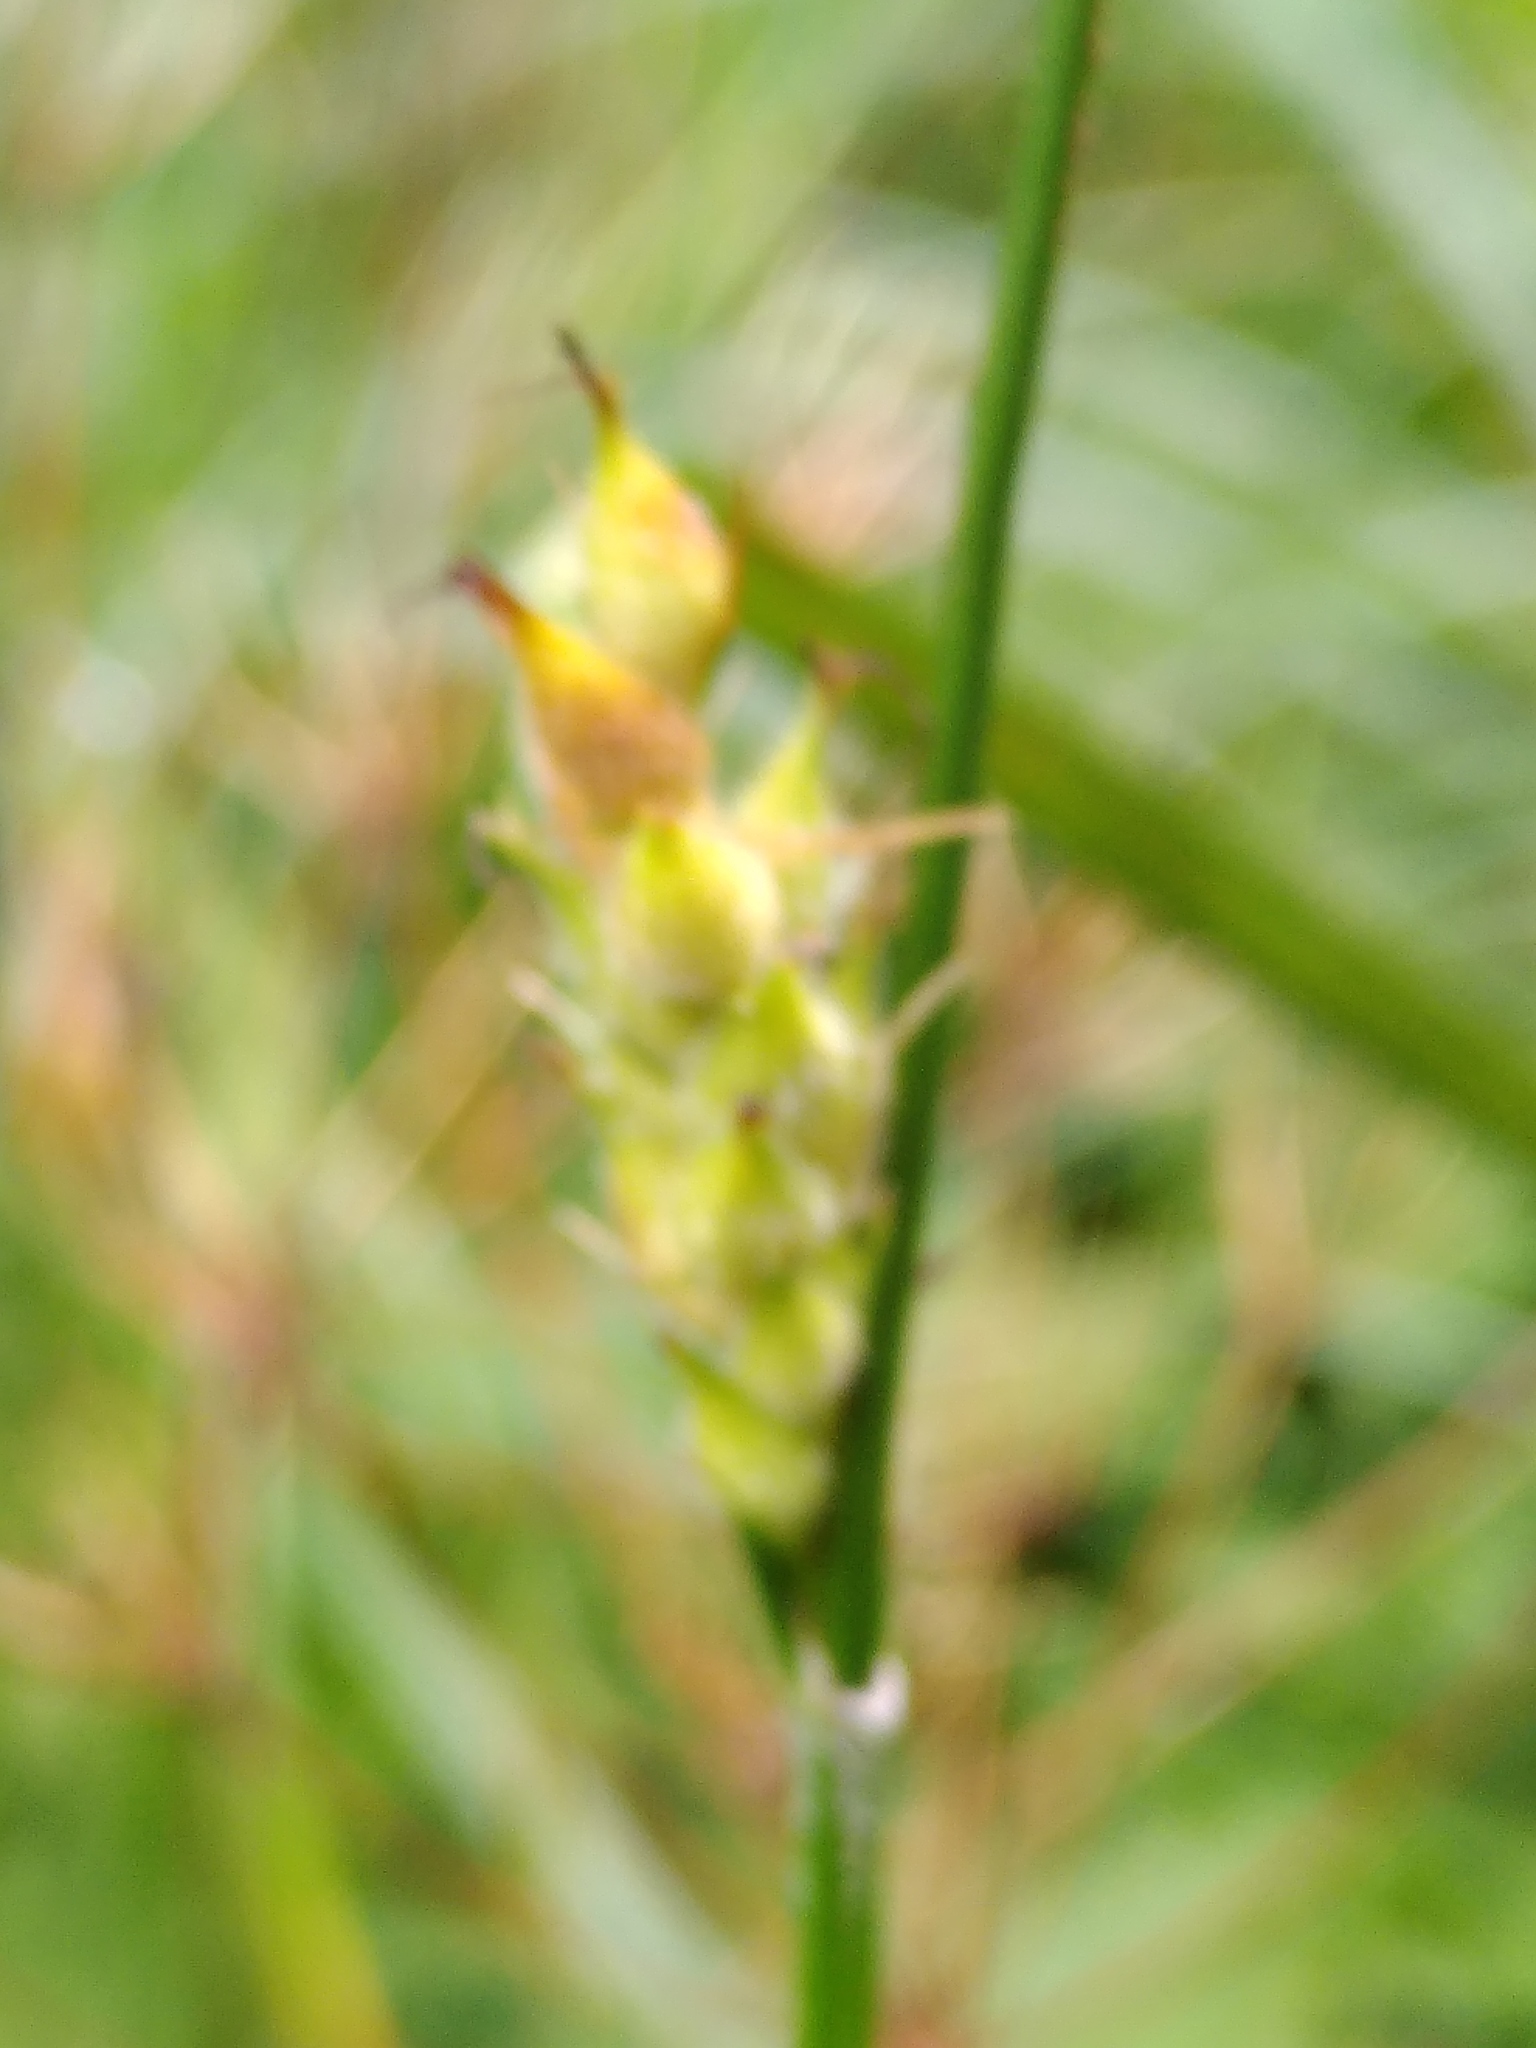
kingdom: Plantae
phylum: Tracheophyta
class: Liliopsida
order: Poales
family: Cyperaceae
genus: Carex
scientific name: Carex hirta
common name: Hairy sedge
